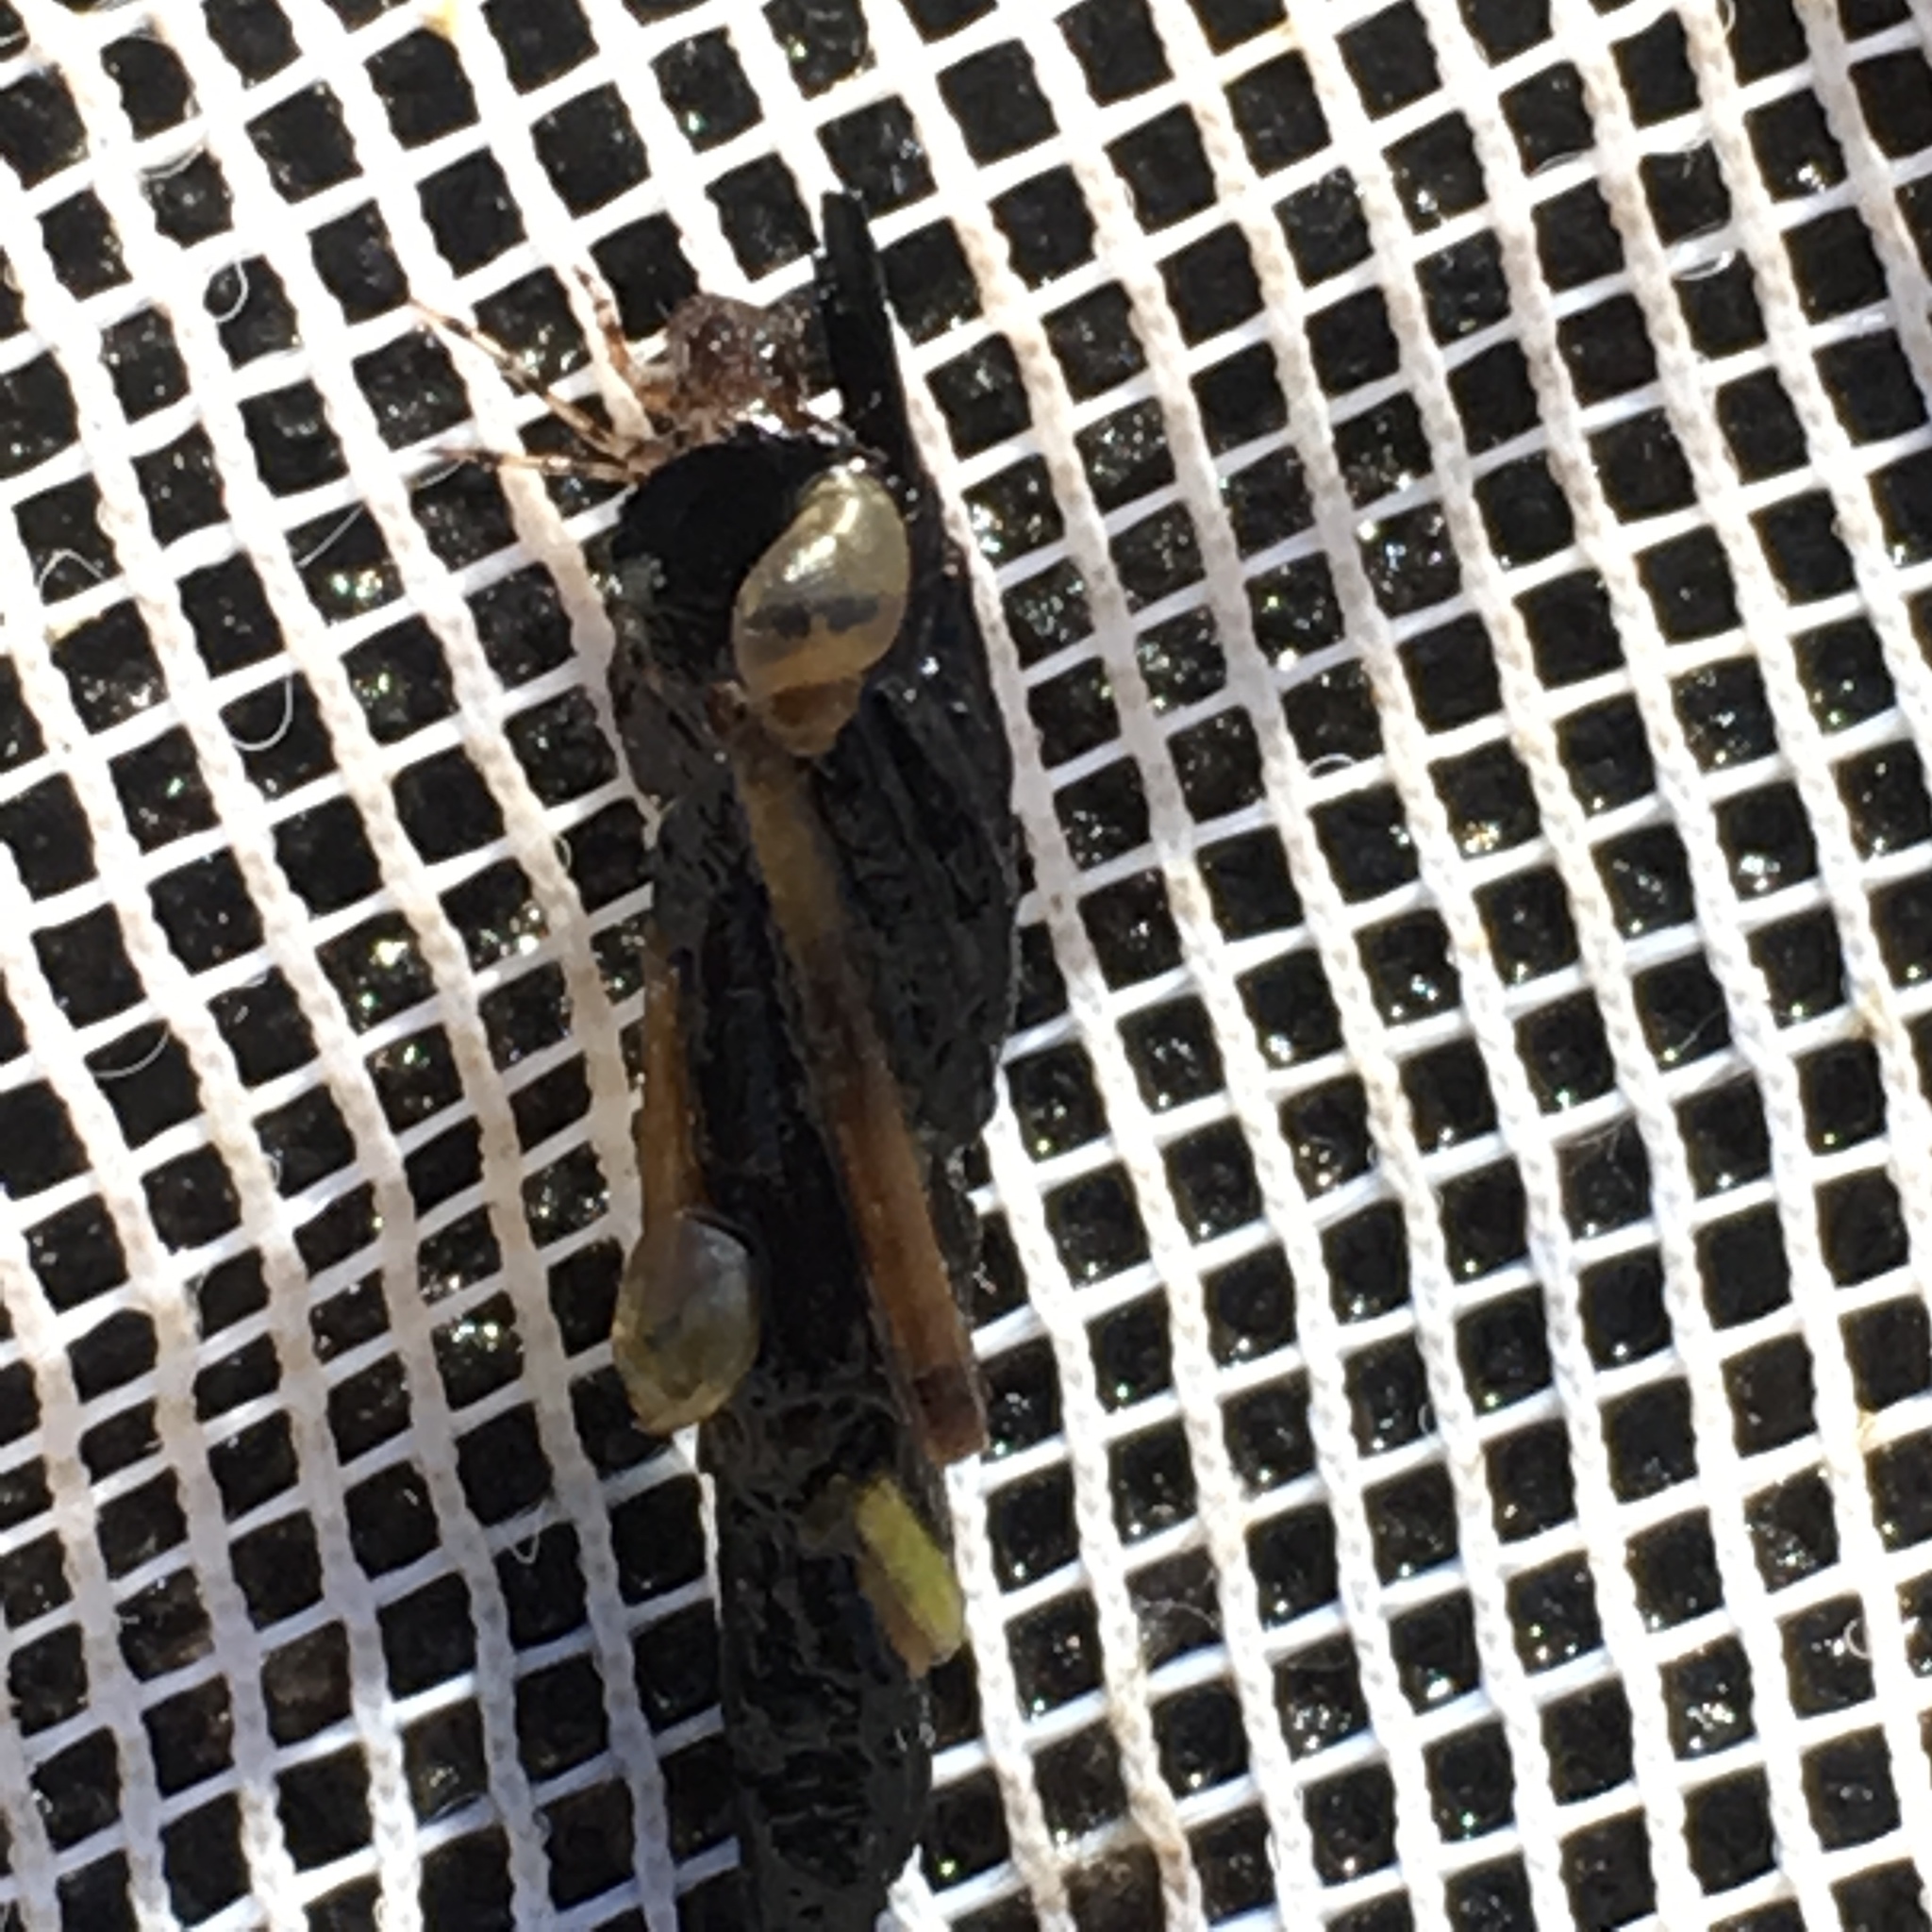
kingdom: Animalia
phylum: Mollusca
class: Gastropoda
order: Stylommatophora
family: Succineidae
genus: Novisuccinea
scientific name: Novisuccinea strigata
